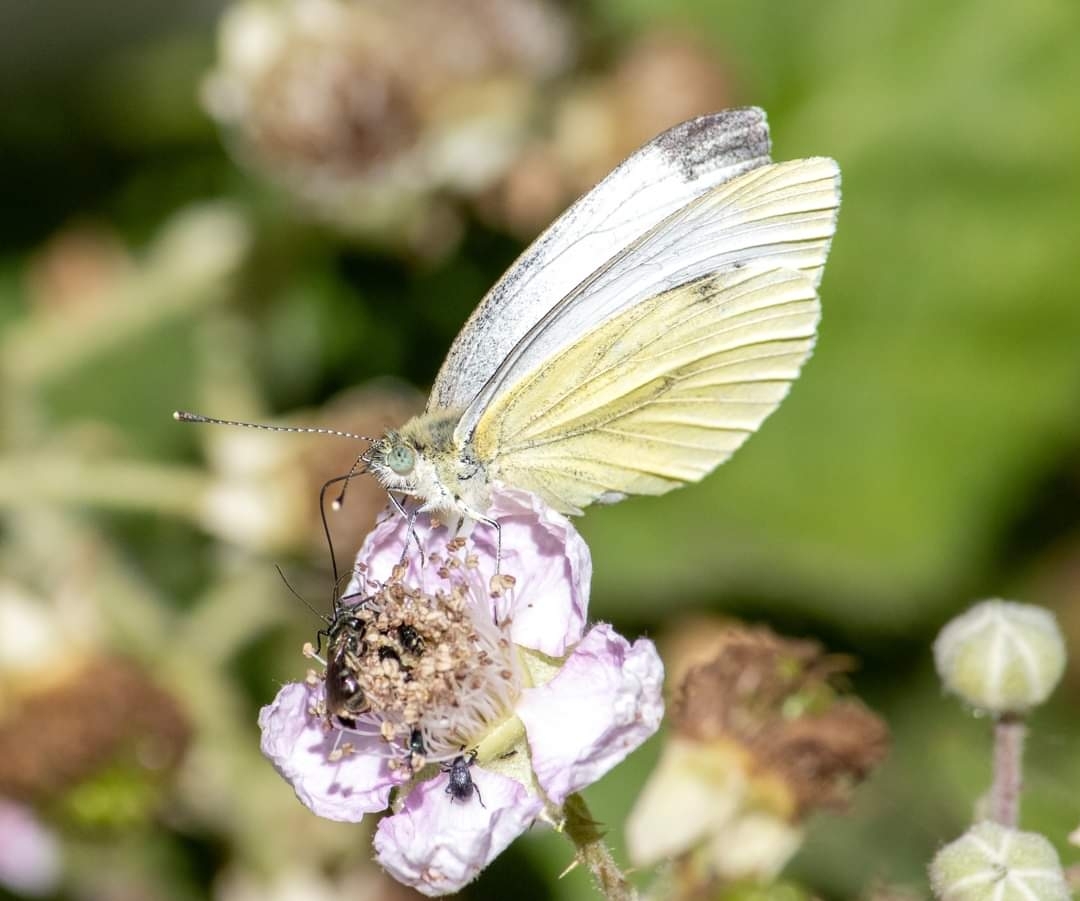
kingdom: Animalia
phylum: Arthropoda
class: Insecta
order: Lepidoptera
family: Pieridae
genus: Pieris
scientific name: Pieris napi
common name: Green-veined white
